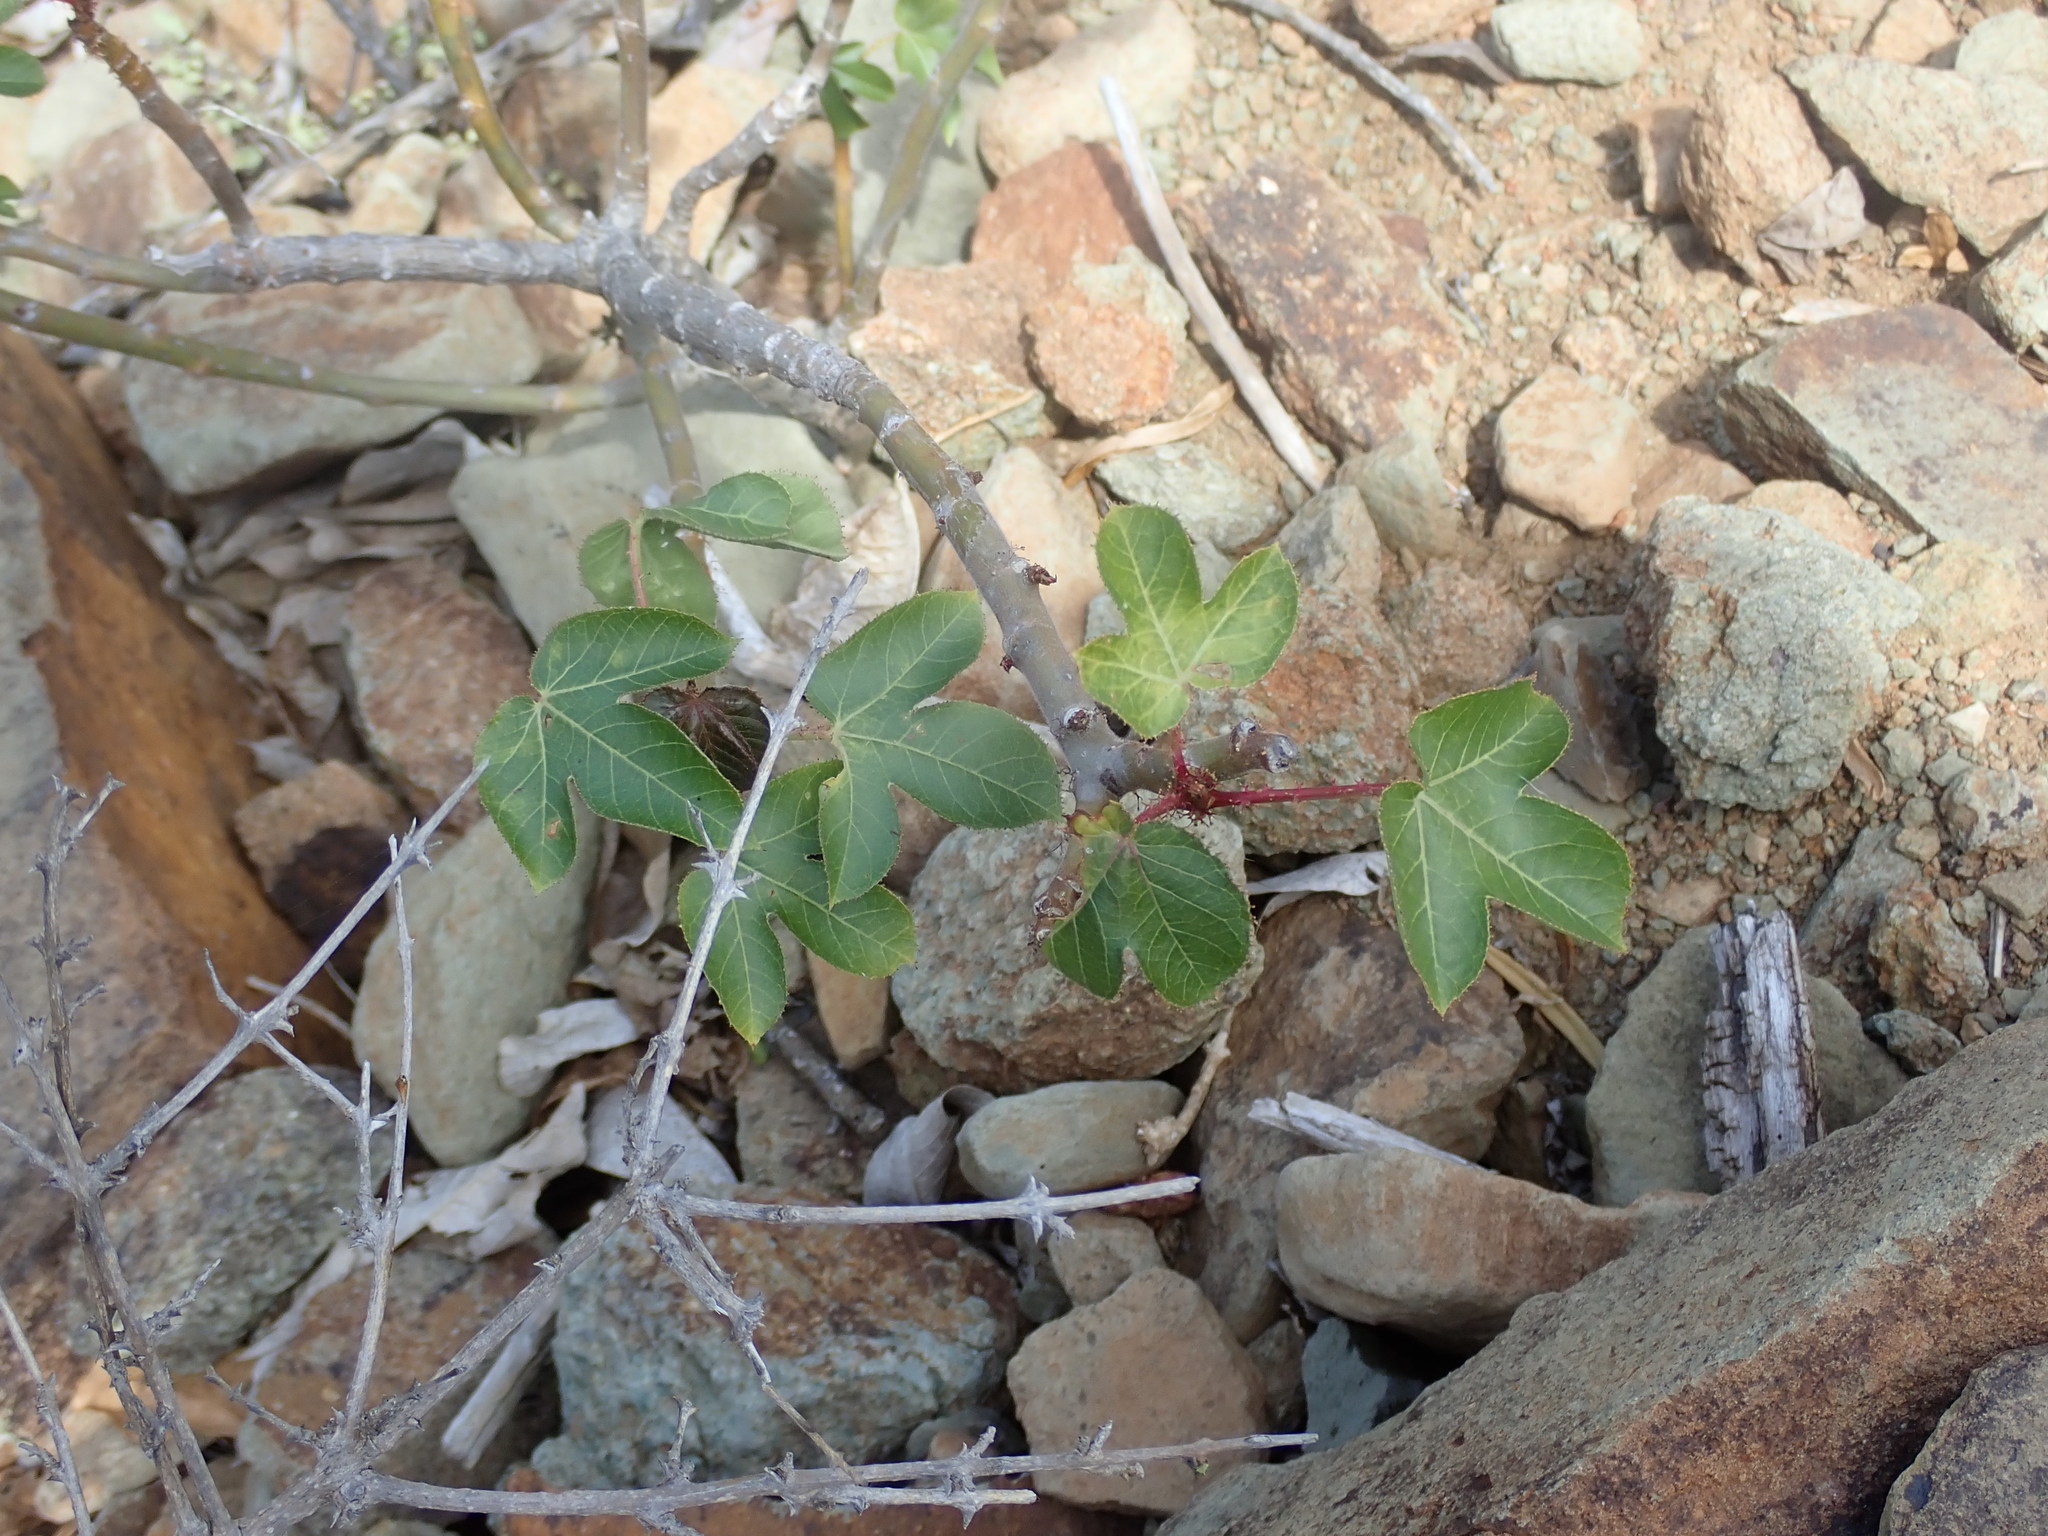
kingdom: Plantae
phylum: Tracheophyta
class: Magnoliopsida
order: Malpighiales
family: Euphorbiaceae
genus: Jatropha
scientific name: Jatropha gossypiifolia
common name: Bellyache bush
